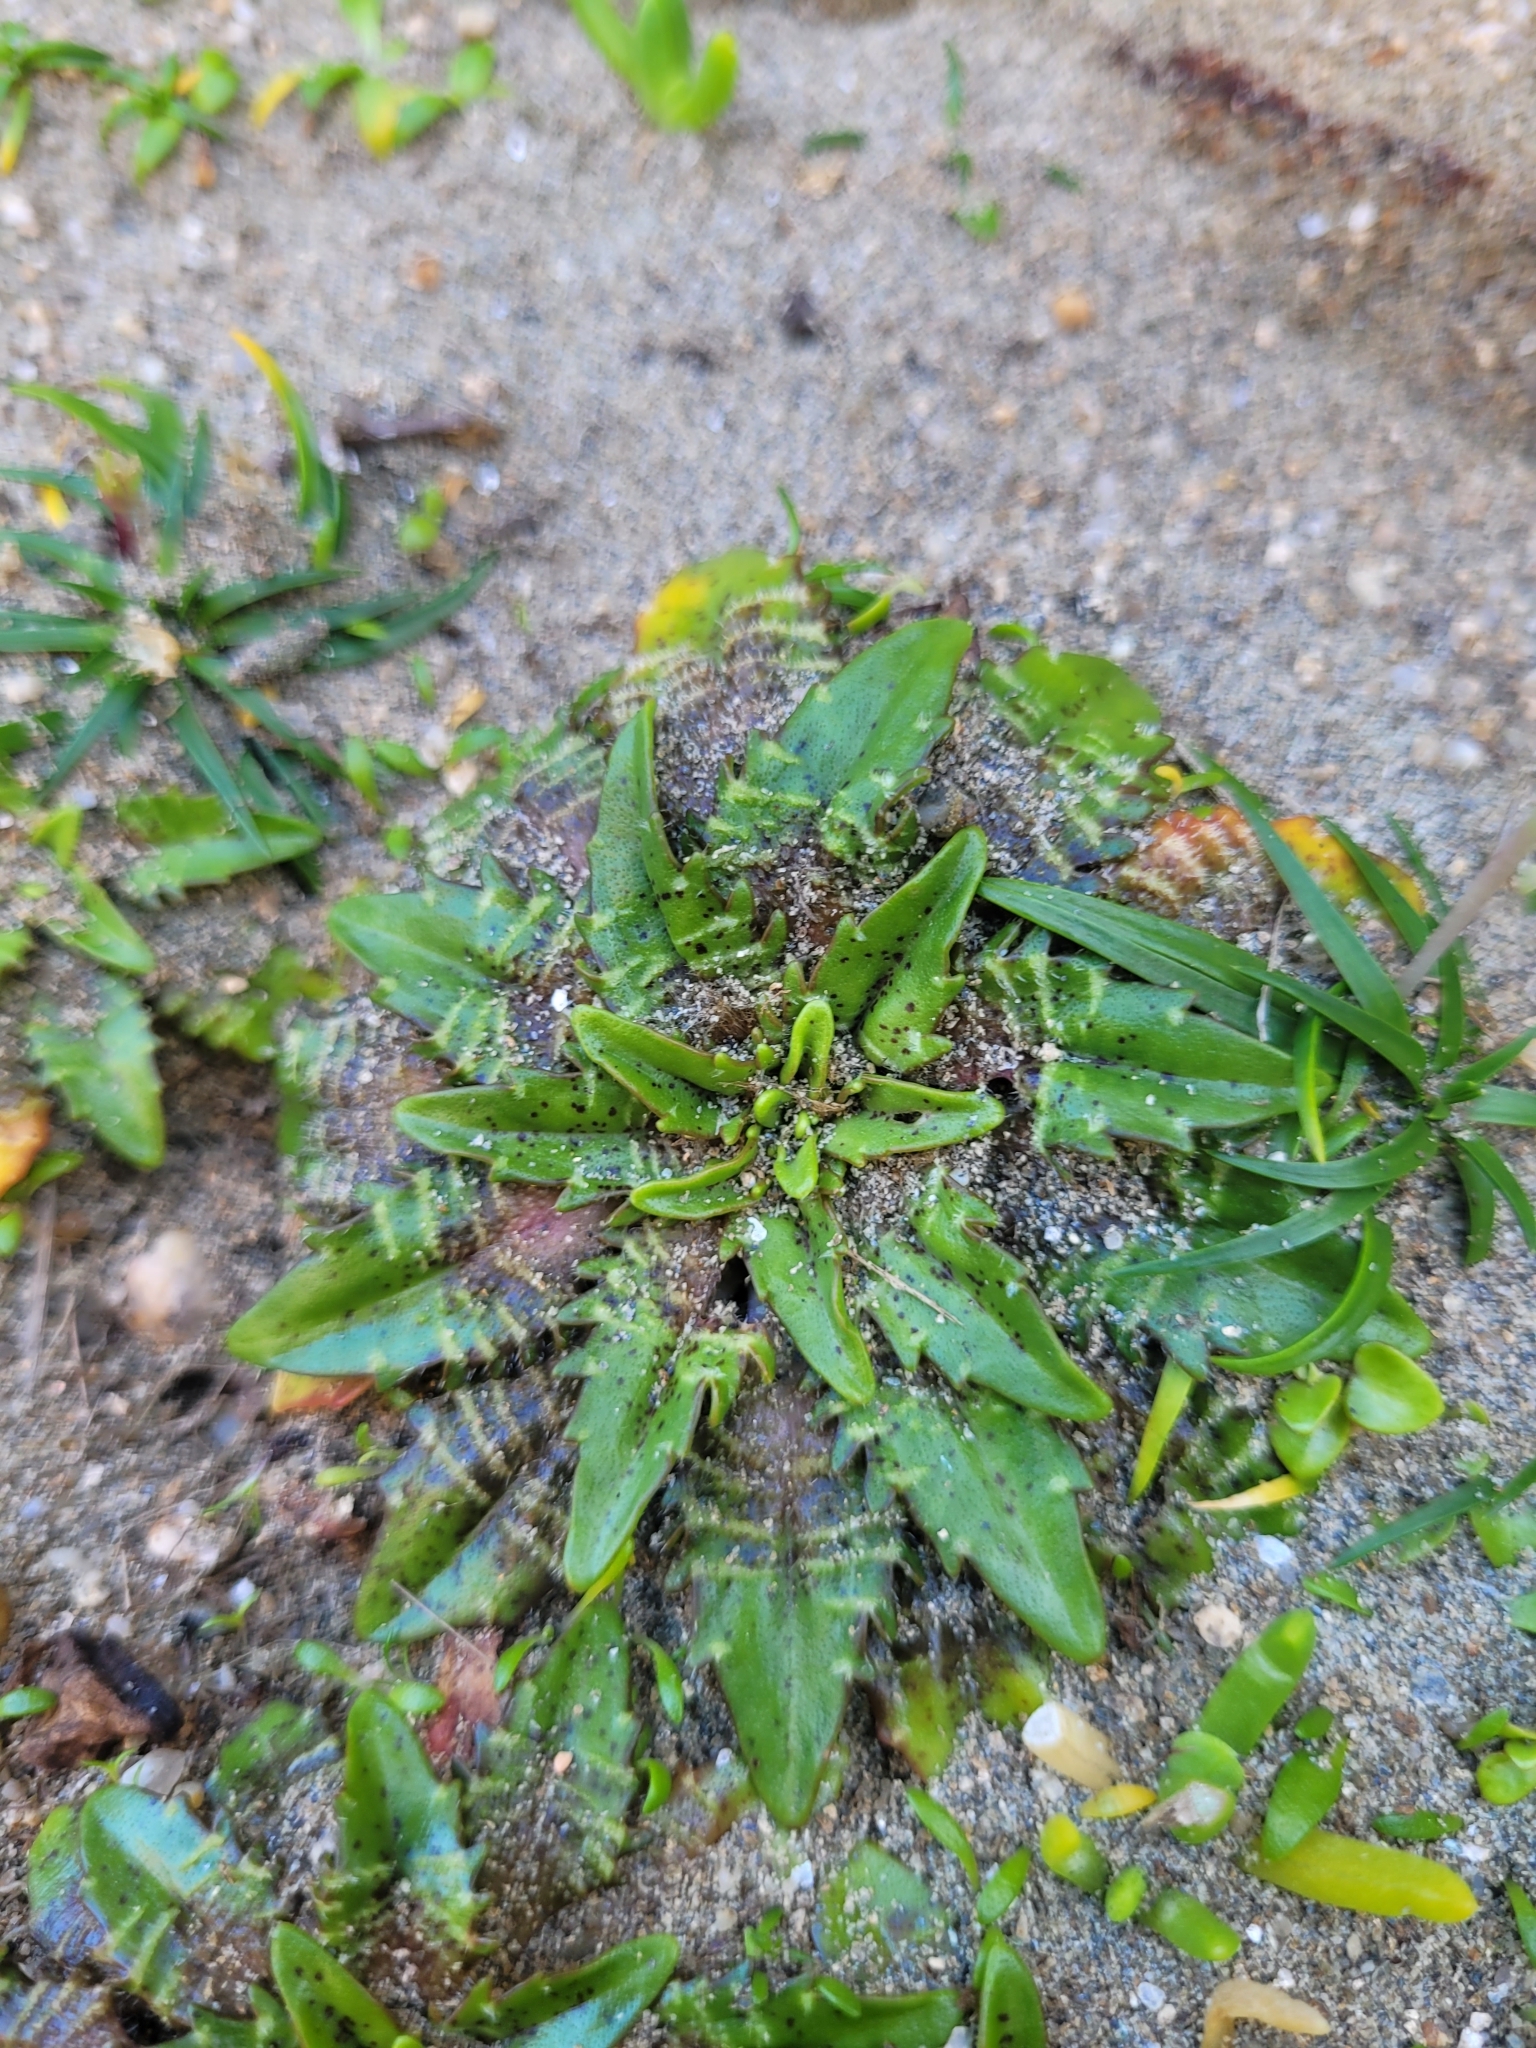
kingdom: Plantae
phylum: Tracheophyta
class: Magnoliopsida
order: Lamiales
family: Plantaginaceae
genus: Plantago
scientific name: Plantago triandra
